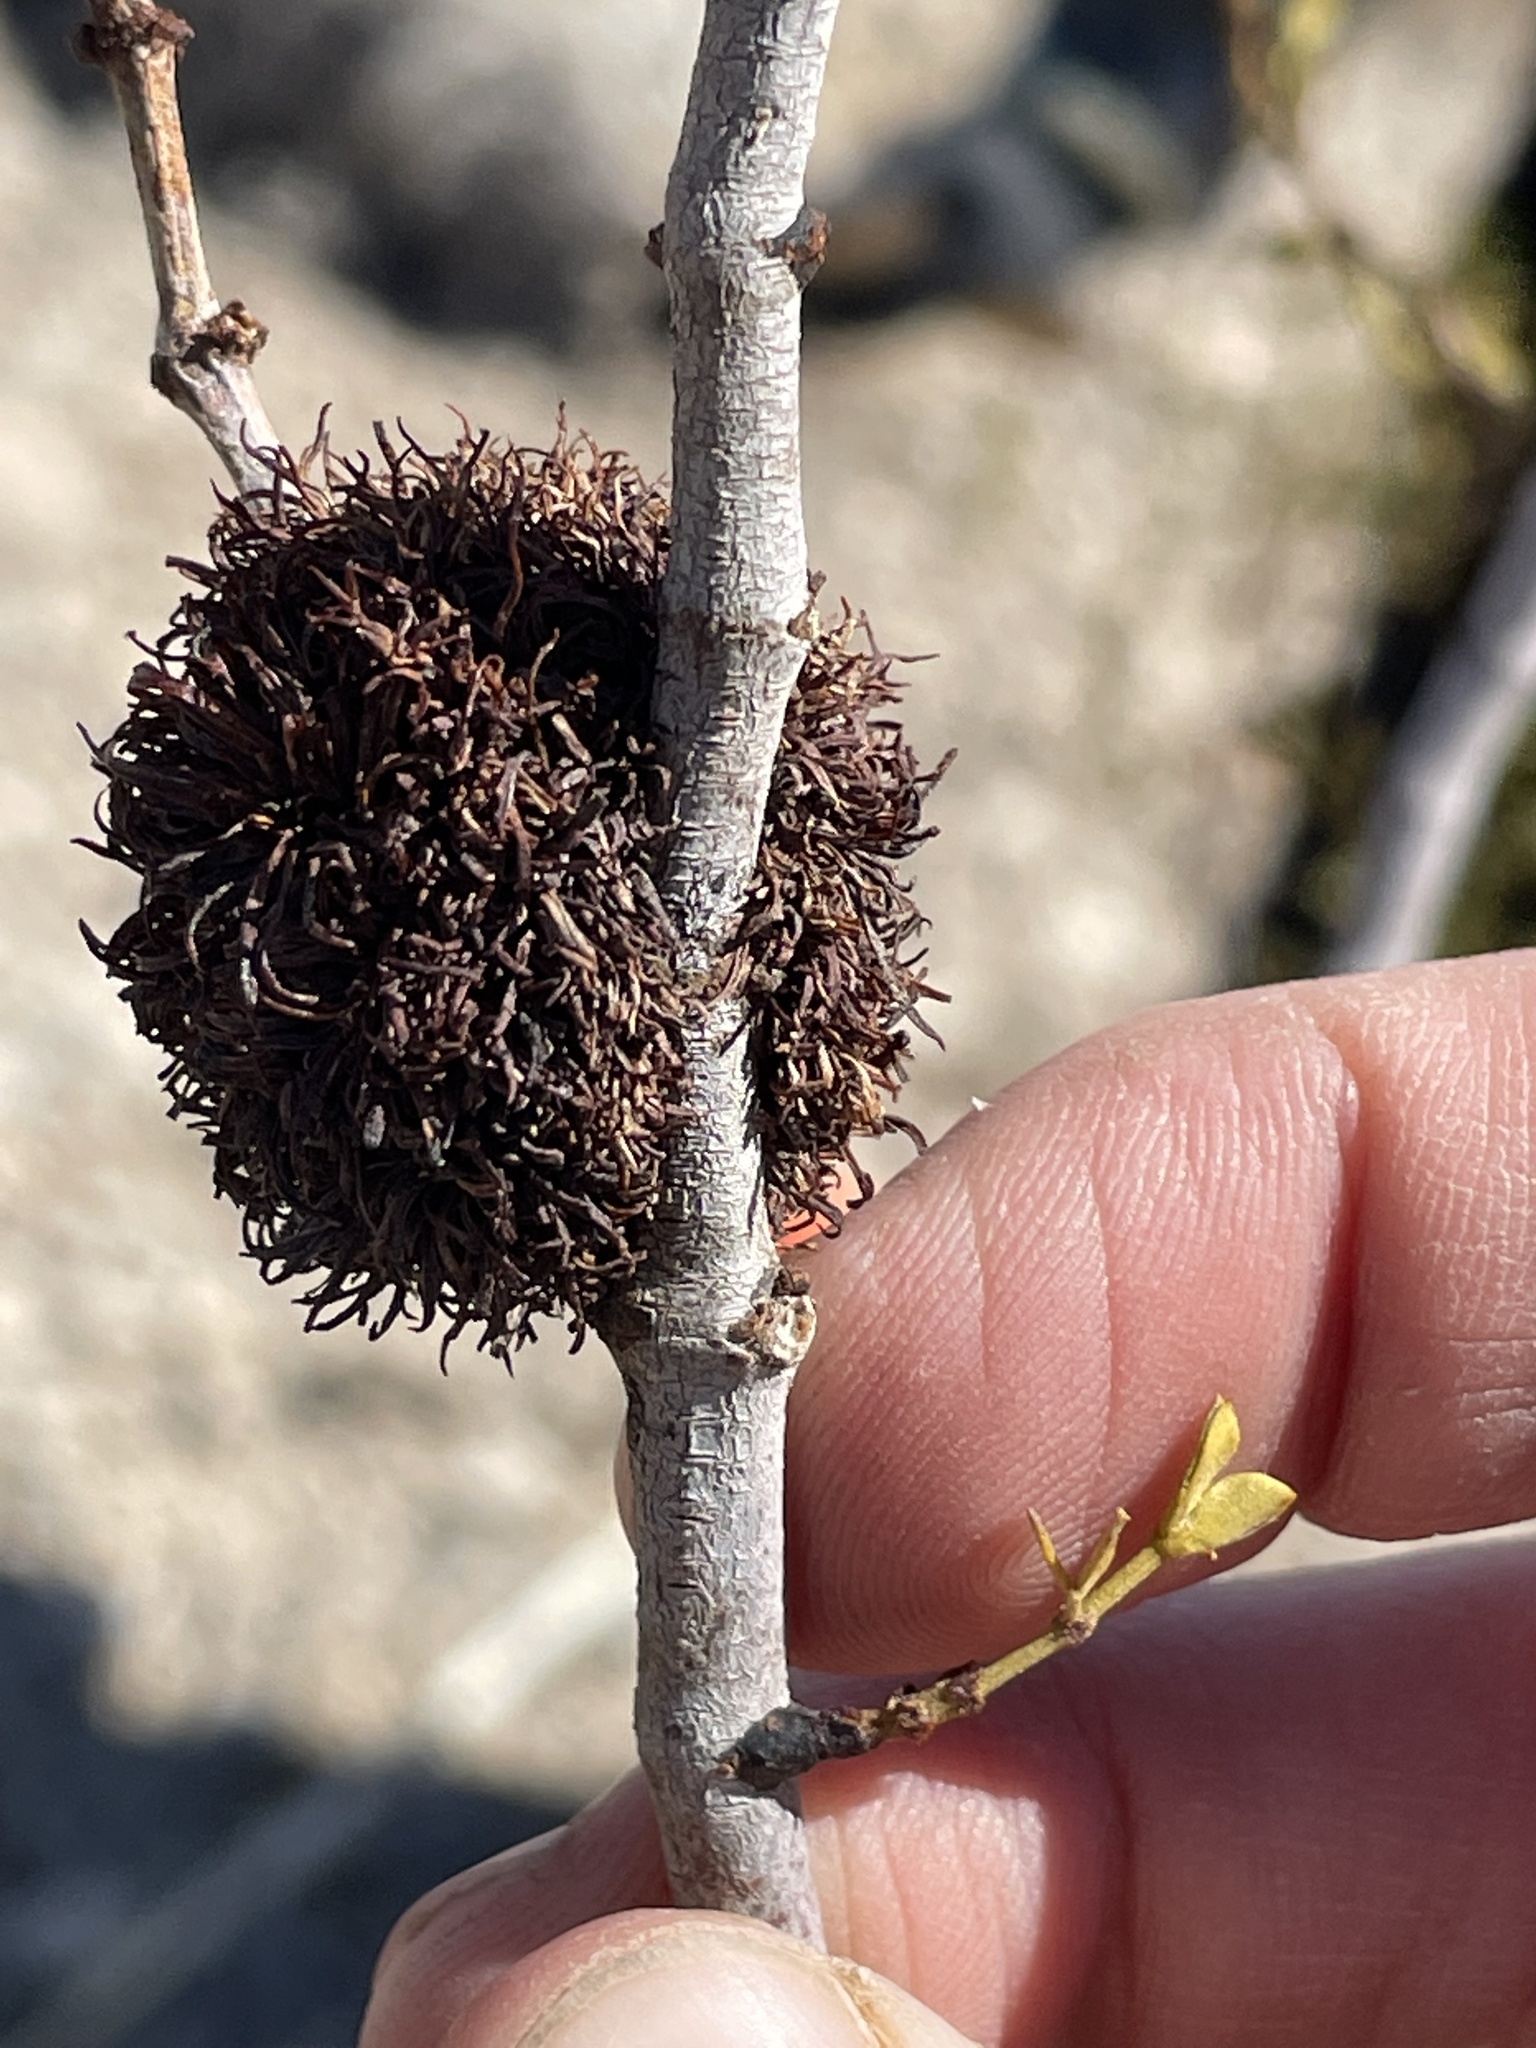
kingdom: Animalia
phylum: Arthropoda
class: Insecta
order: Diptera
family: Cecidomyiidae
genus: Asphondylia
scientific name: Asphondylia auripila
